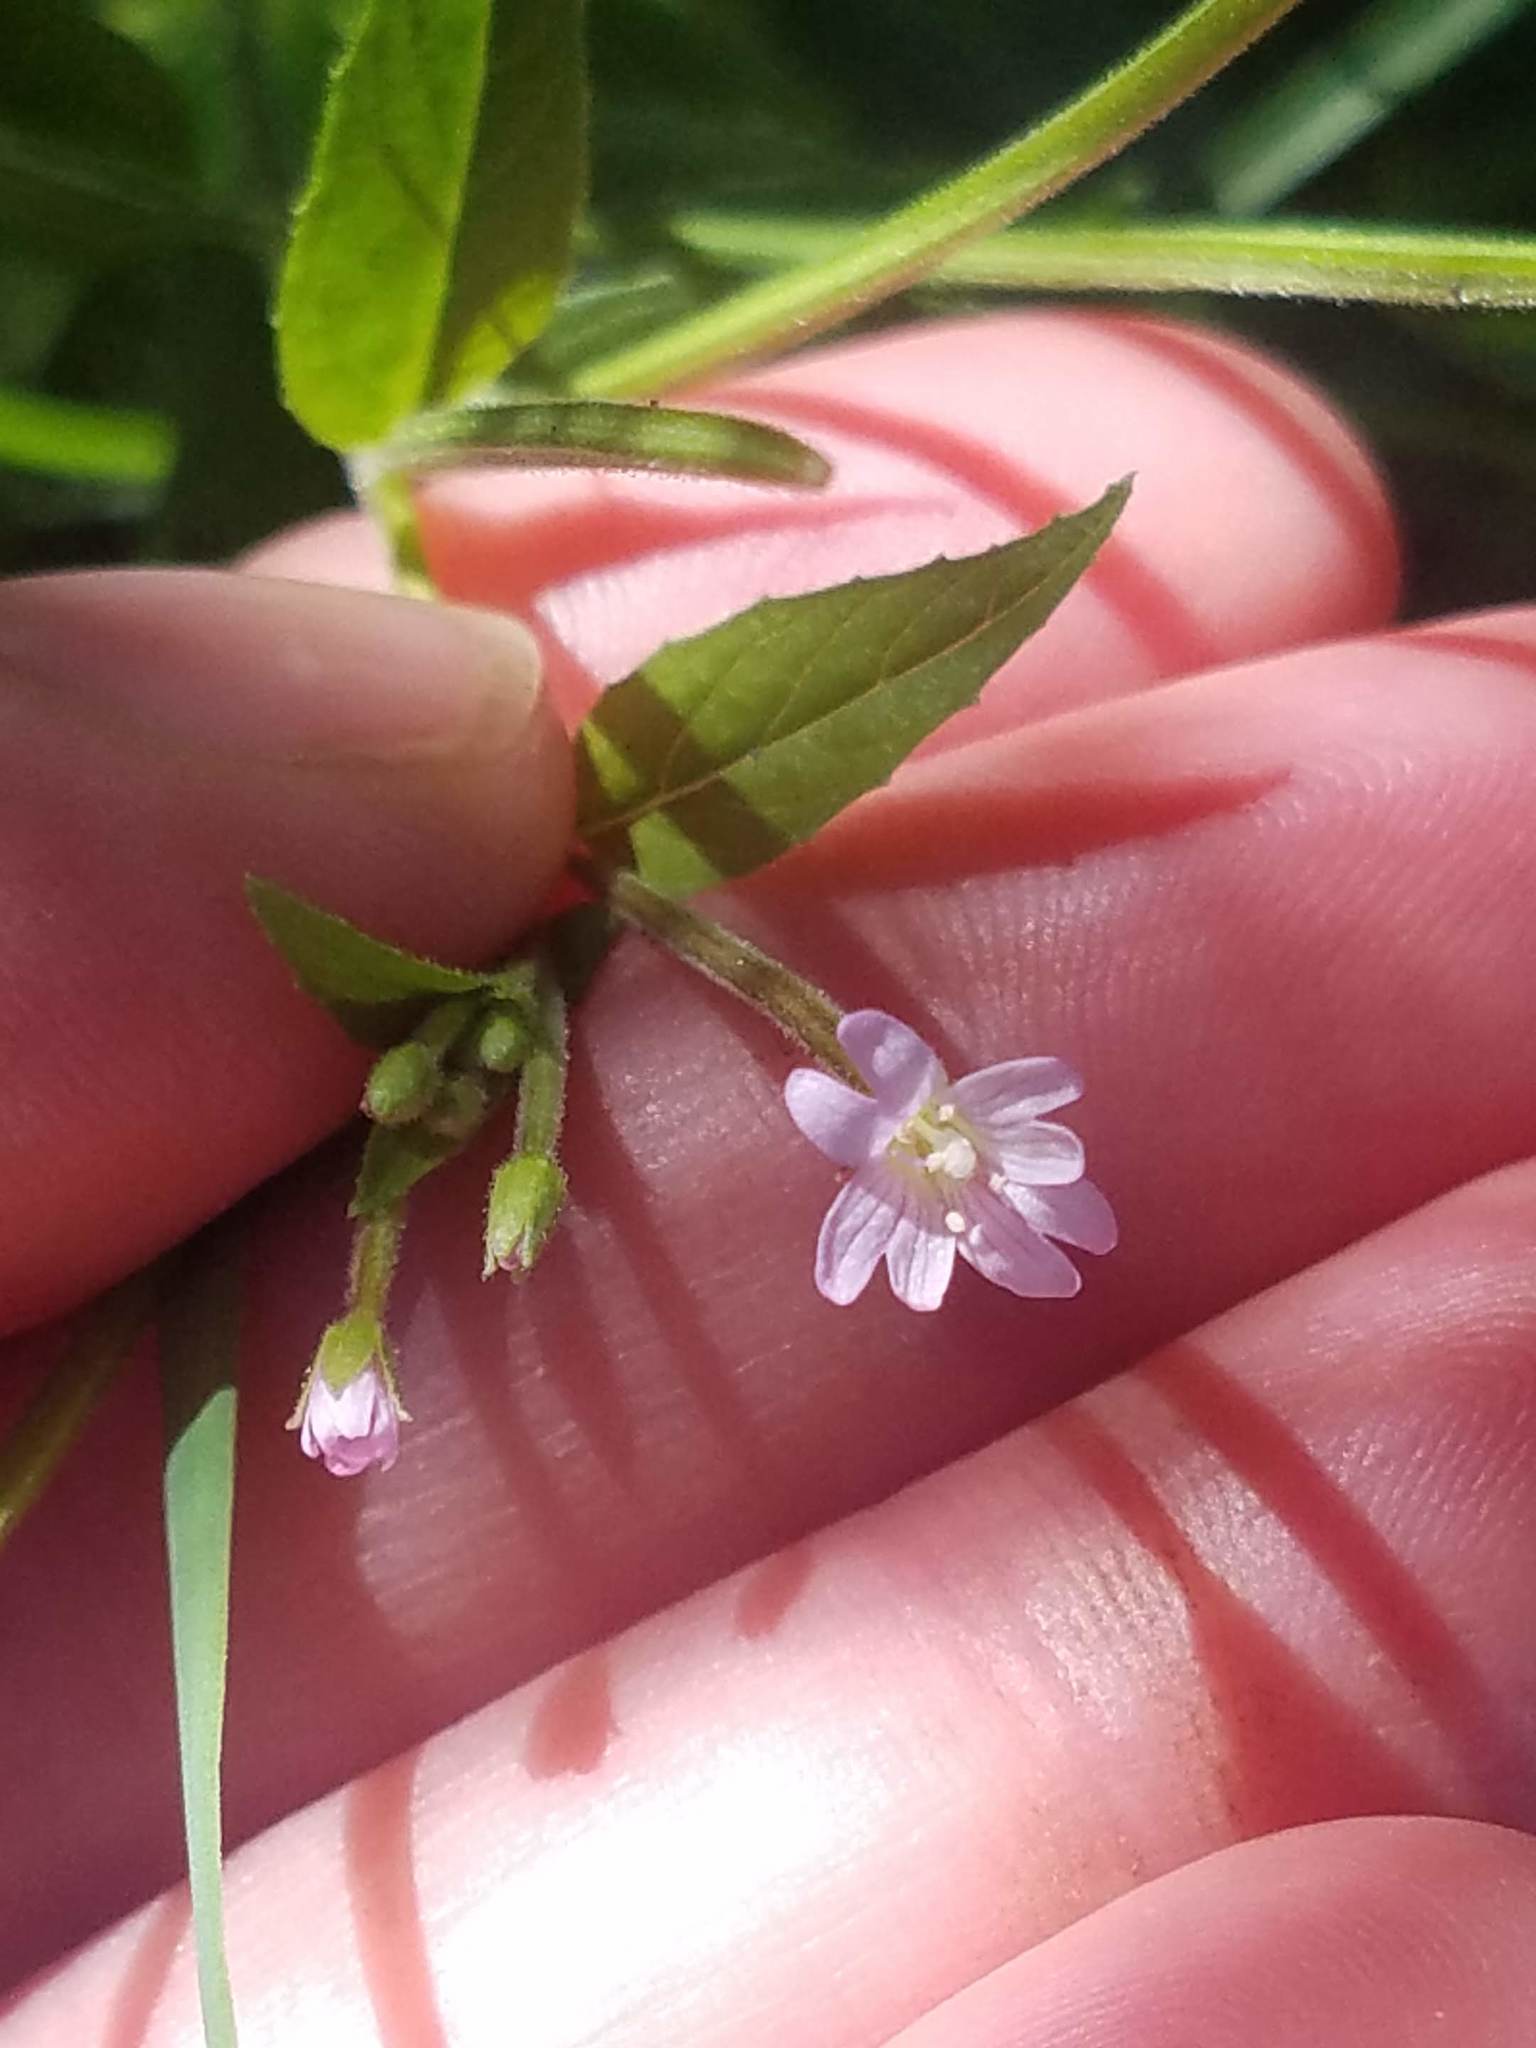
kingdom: Plantae
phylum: Tracheophyta
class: Magnoliopsida
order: Myrtales
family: Onagraceae
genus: Epilobium
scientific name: Epilobium ciliatum
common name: American willowherb
